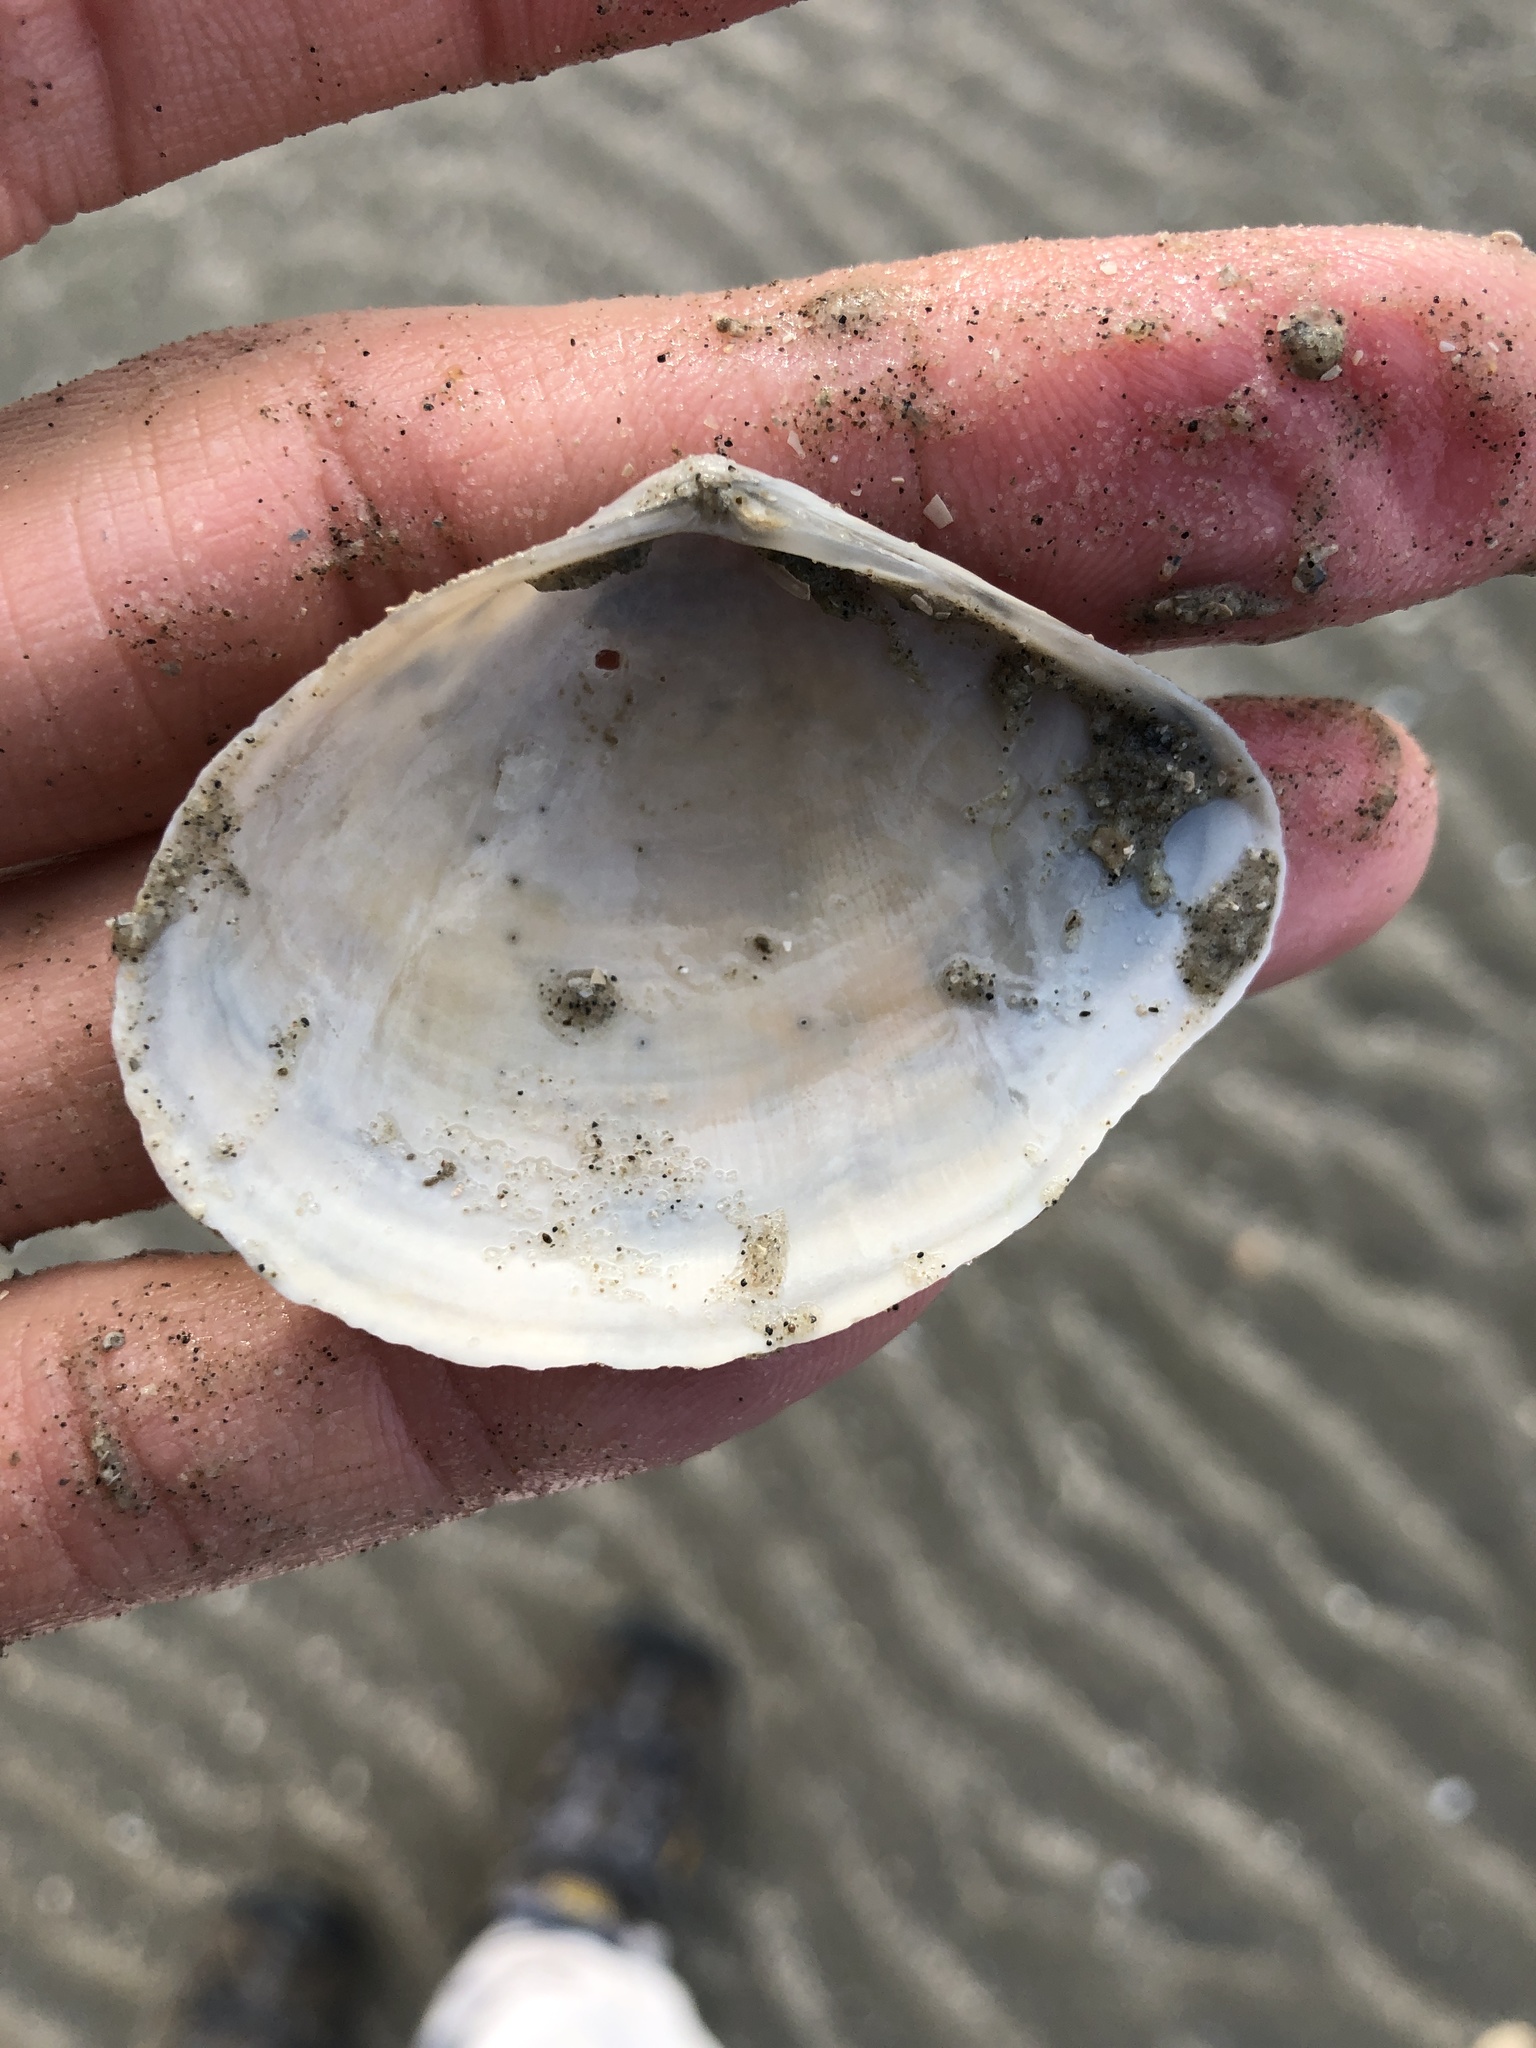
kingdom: Animalia
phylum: Mollusca
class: Bivalvia
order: Cardiida
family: Tellinidae
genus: Austromacoma
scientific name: Austromacoma constricta
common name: Constricted macoma
